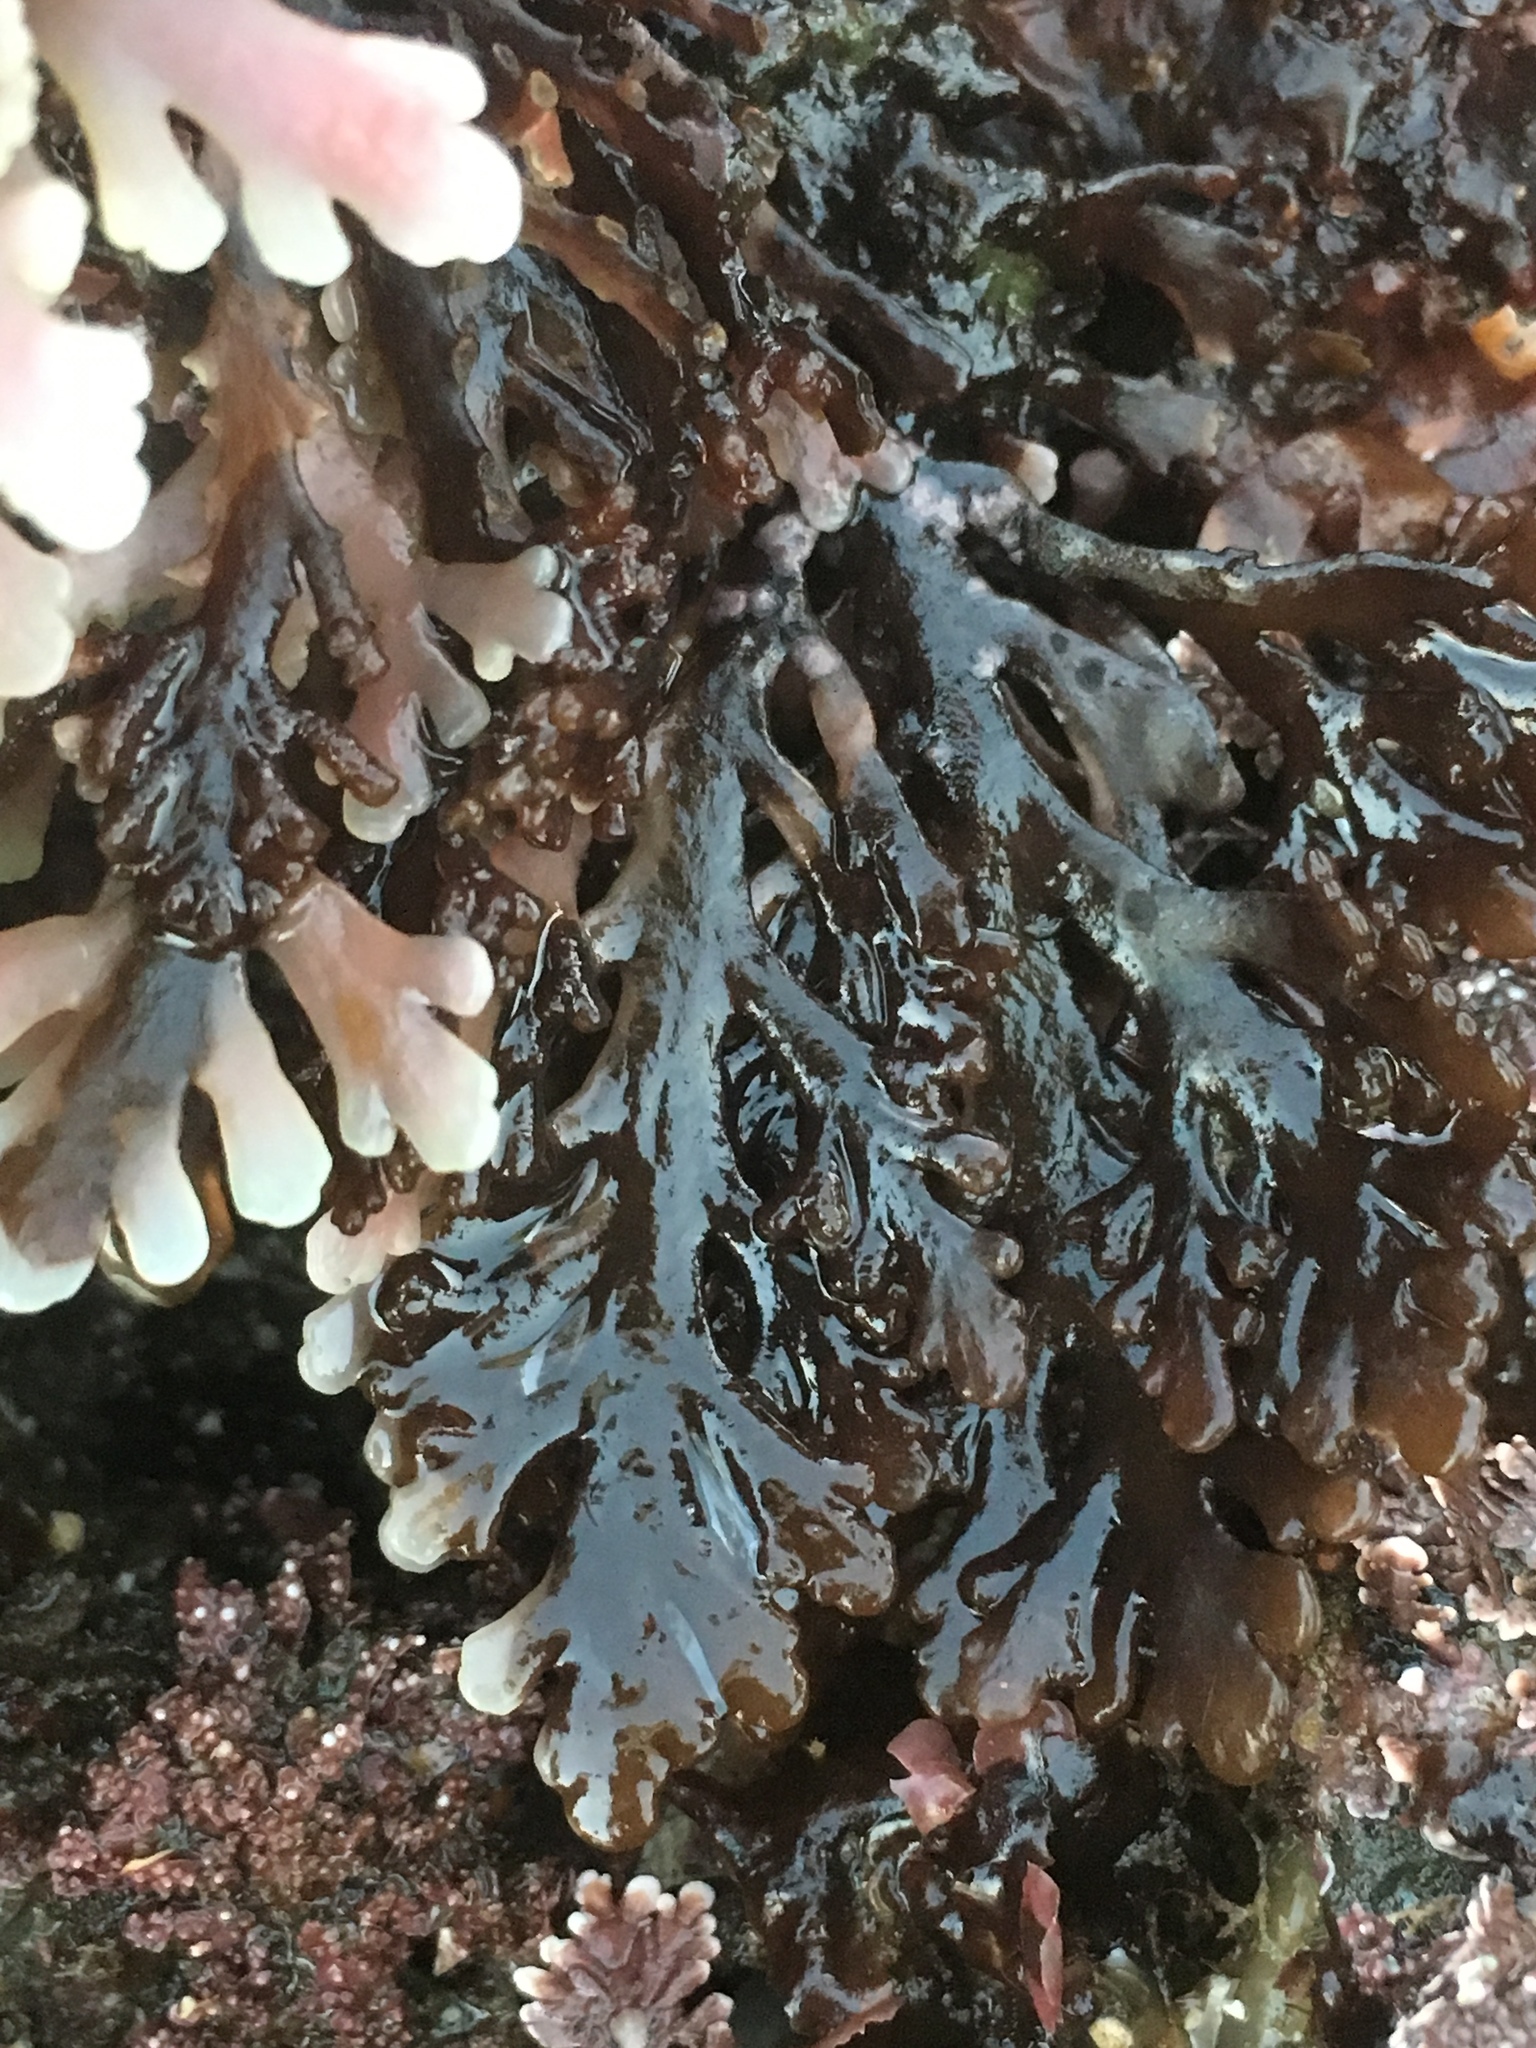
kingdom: Plantae
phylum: Rhodophyta
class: Florideophyceae
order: Ceramiales
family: Rhodomelaceae
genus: Osmundea
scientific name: Osmundea spectabilis
